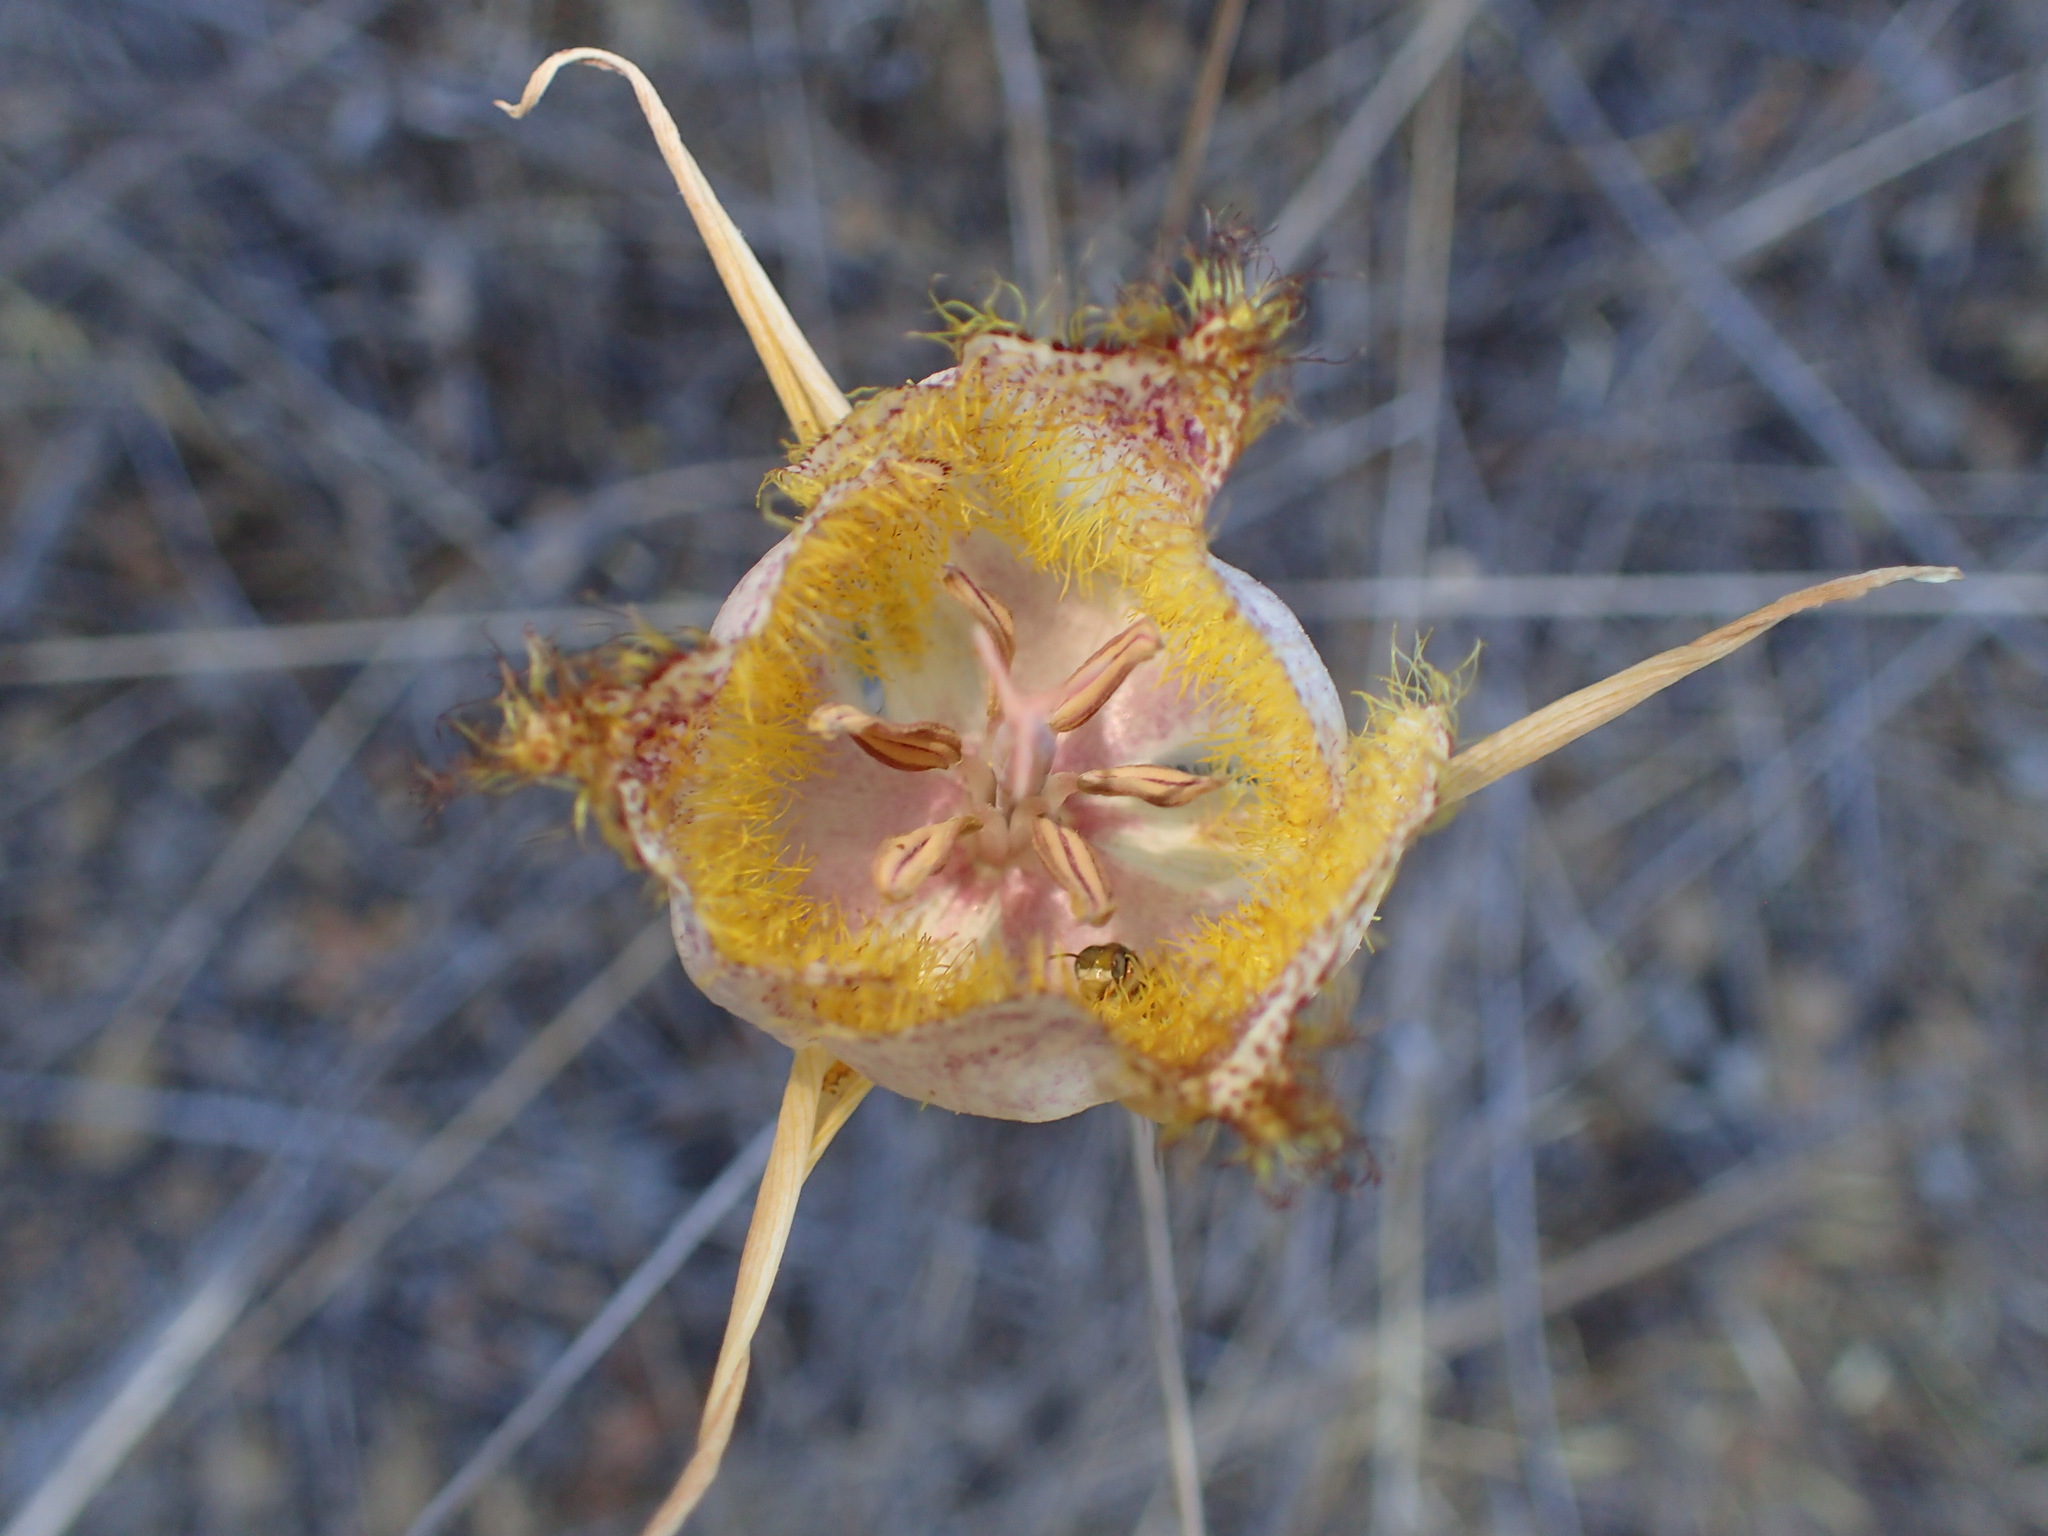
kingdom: Plantae
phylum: Tracheophyta
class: Liliopsida
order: Liliales
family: Liliaceae
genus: Calochortus
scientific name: Calochortus fimbriatus
